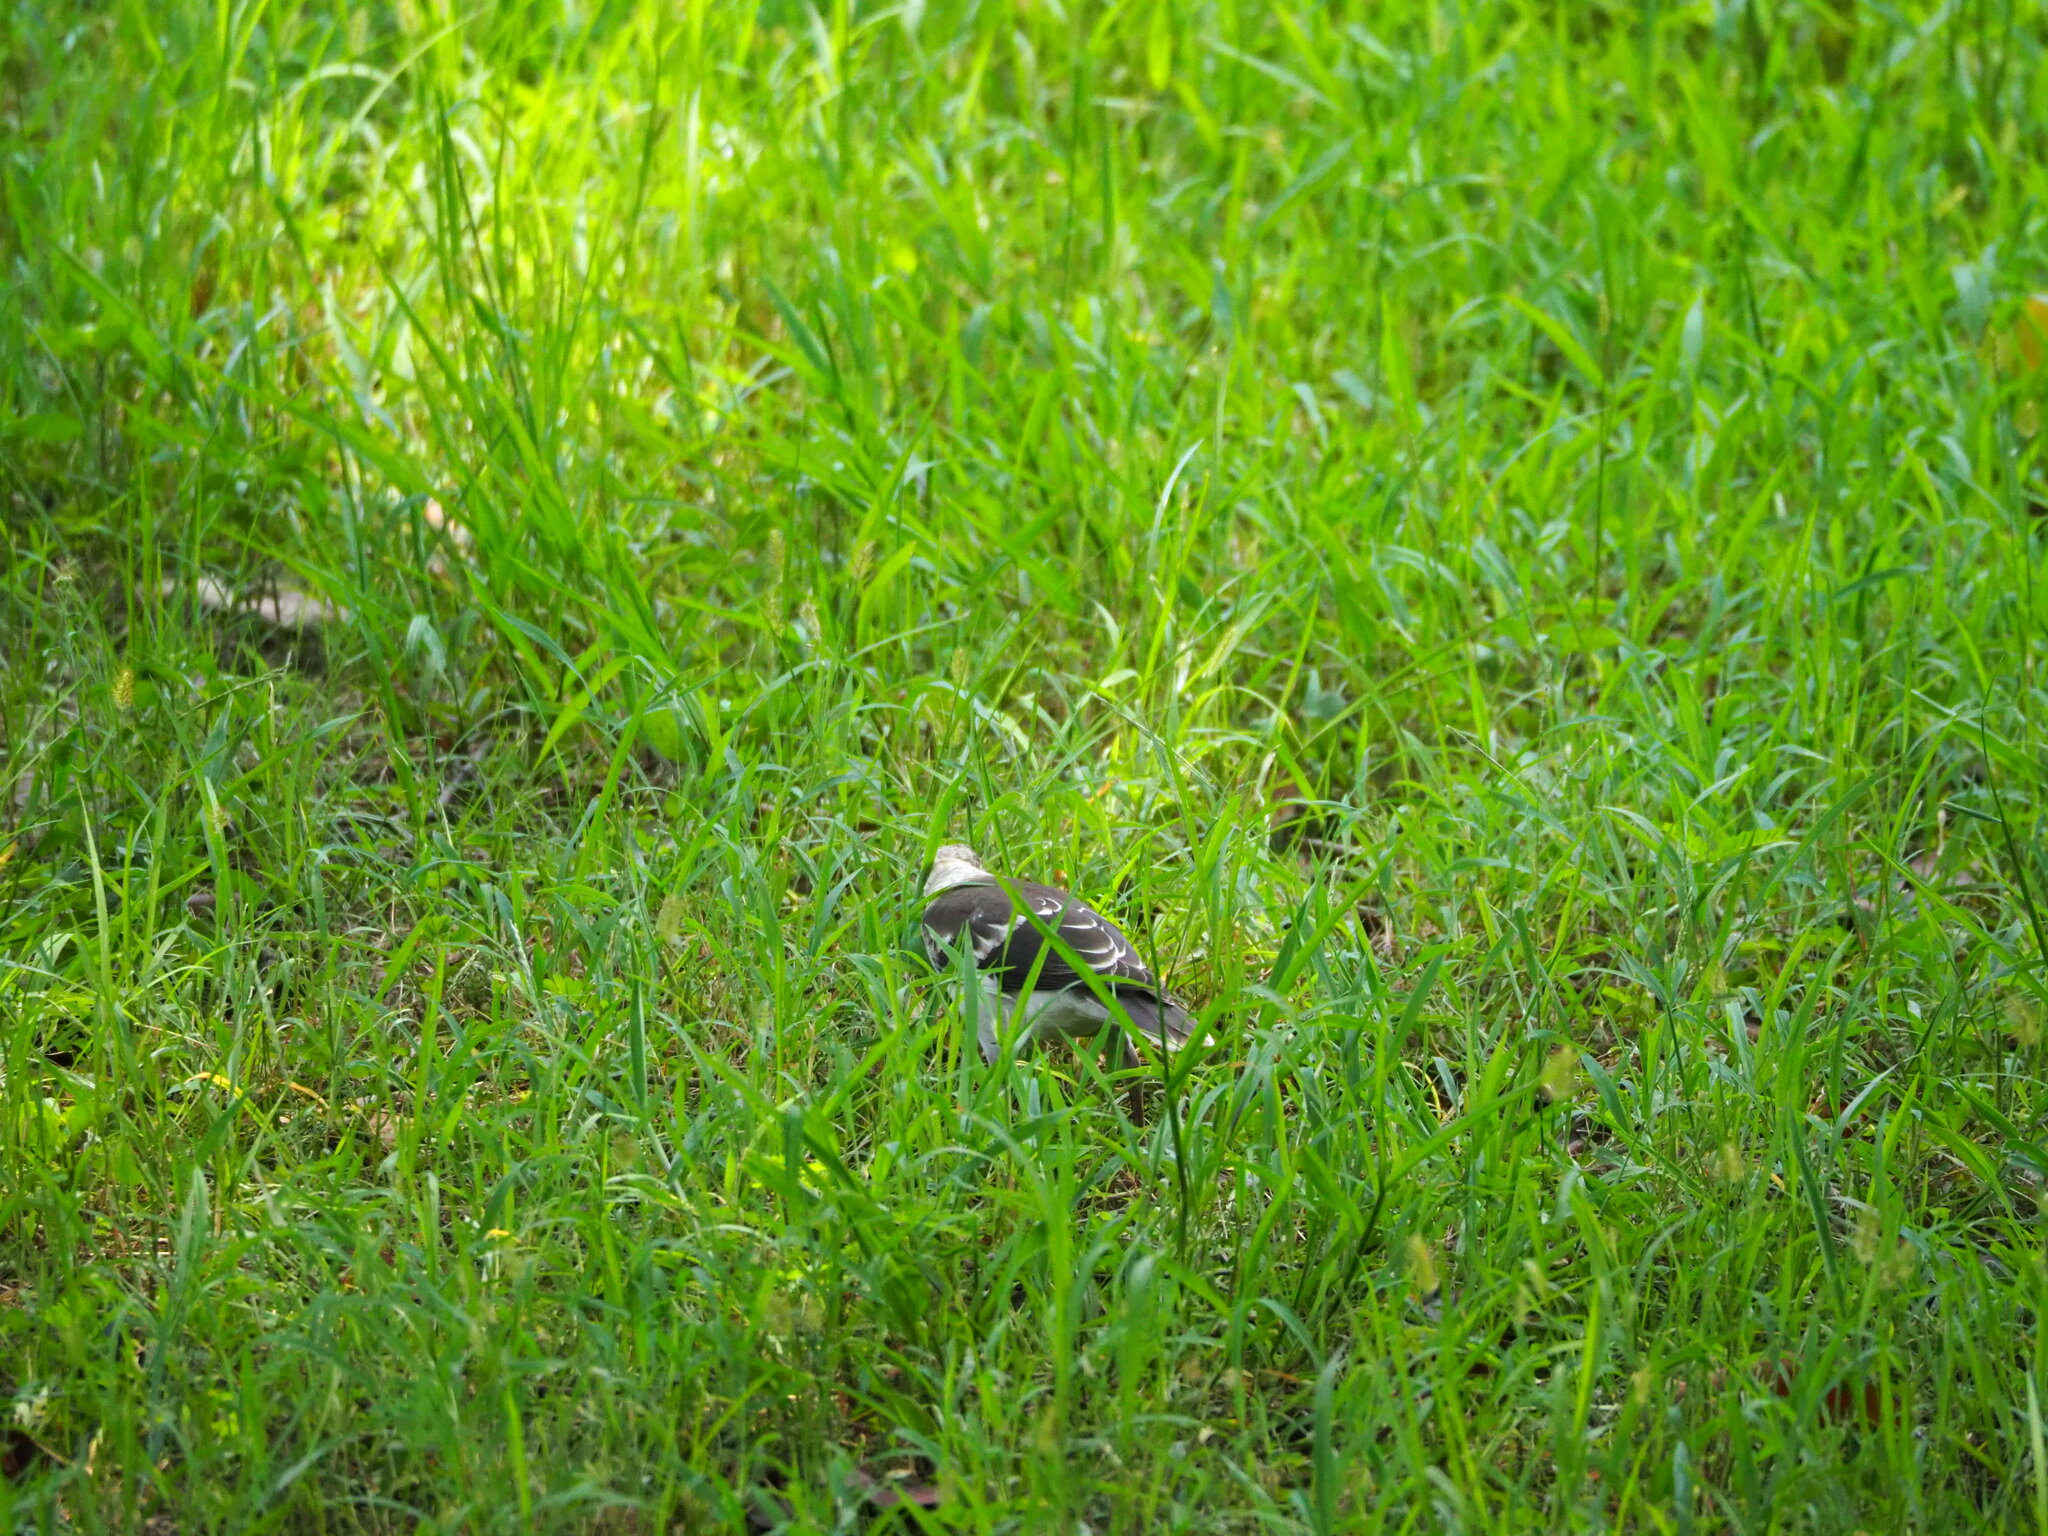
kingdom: Animalia
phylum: Chordata
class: Aves
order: Passeriformes
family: Sturnidae
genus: Gracupica
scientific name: Gracupica nigricollis
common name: Black-collared starling
